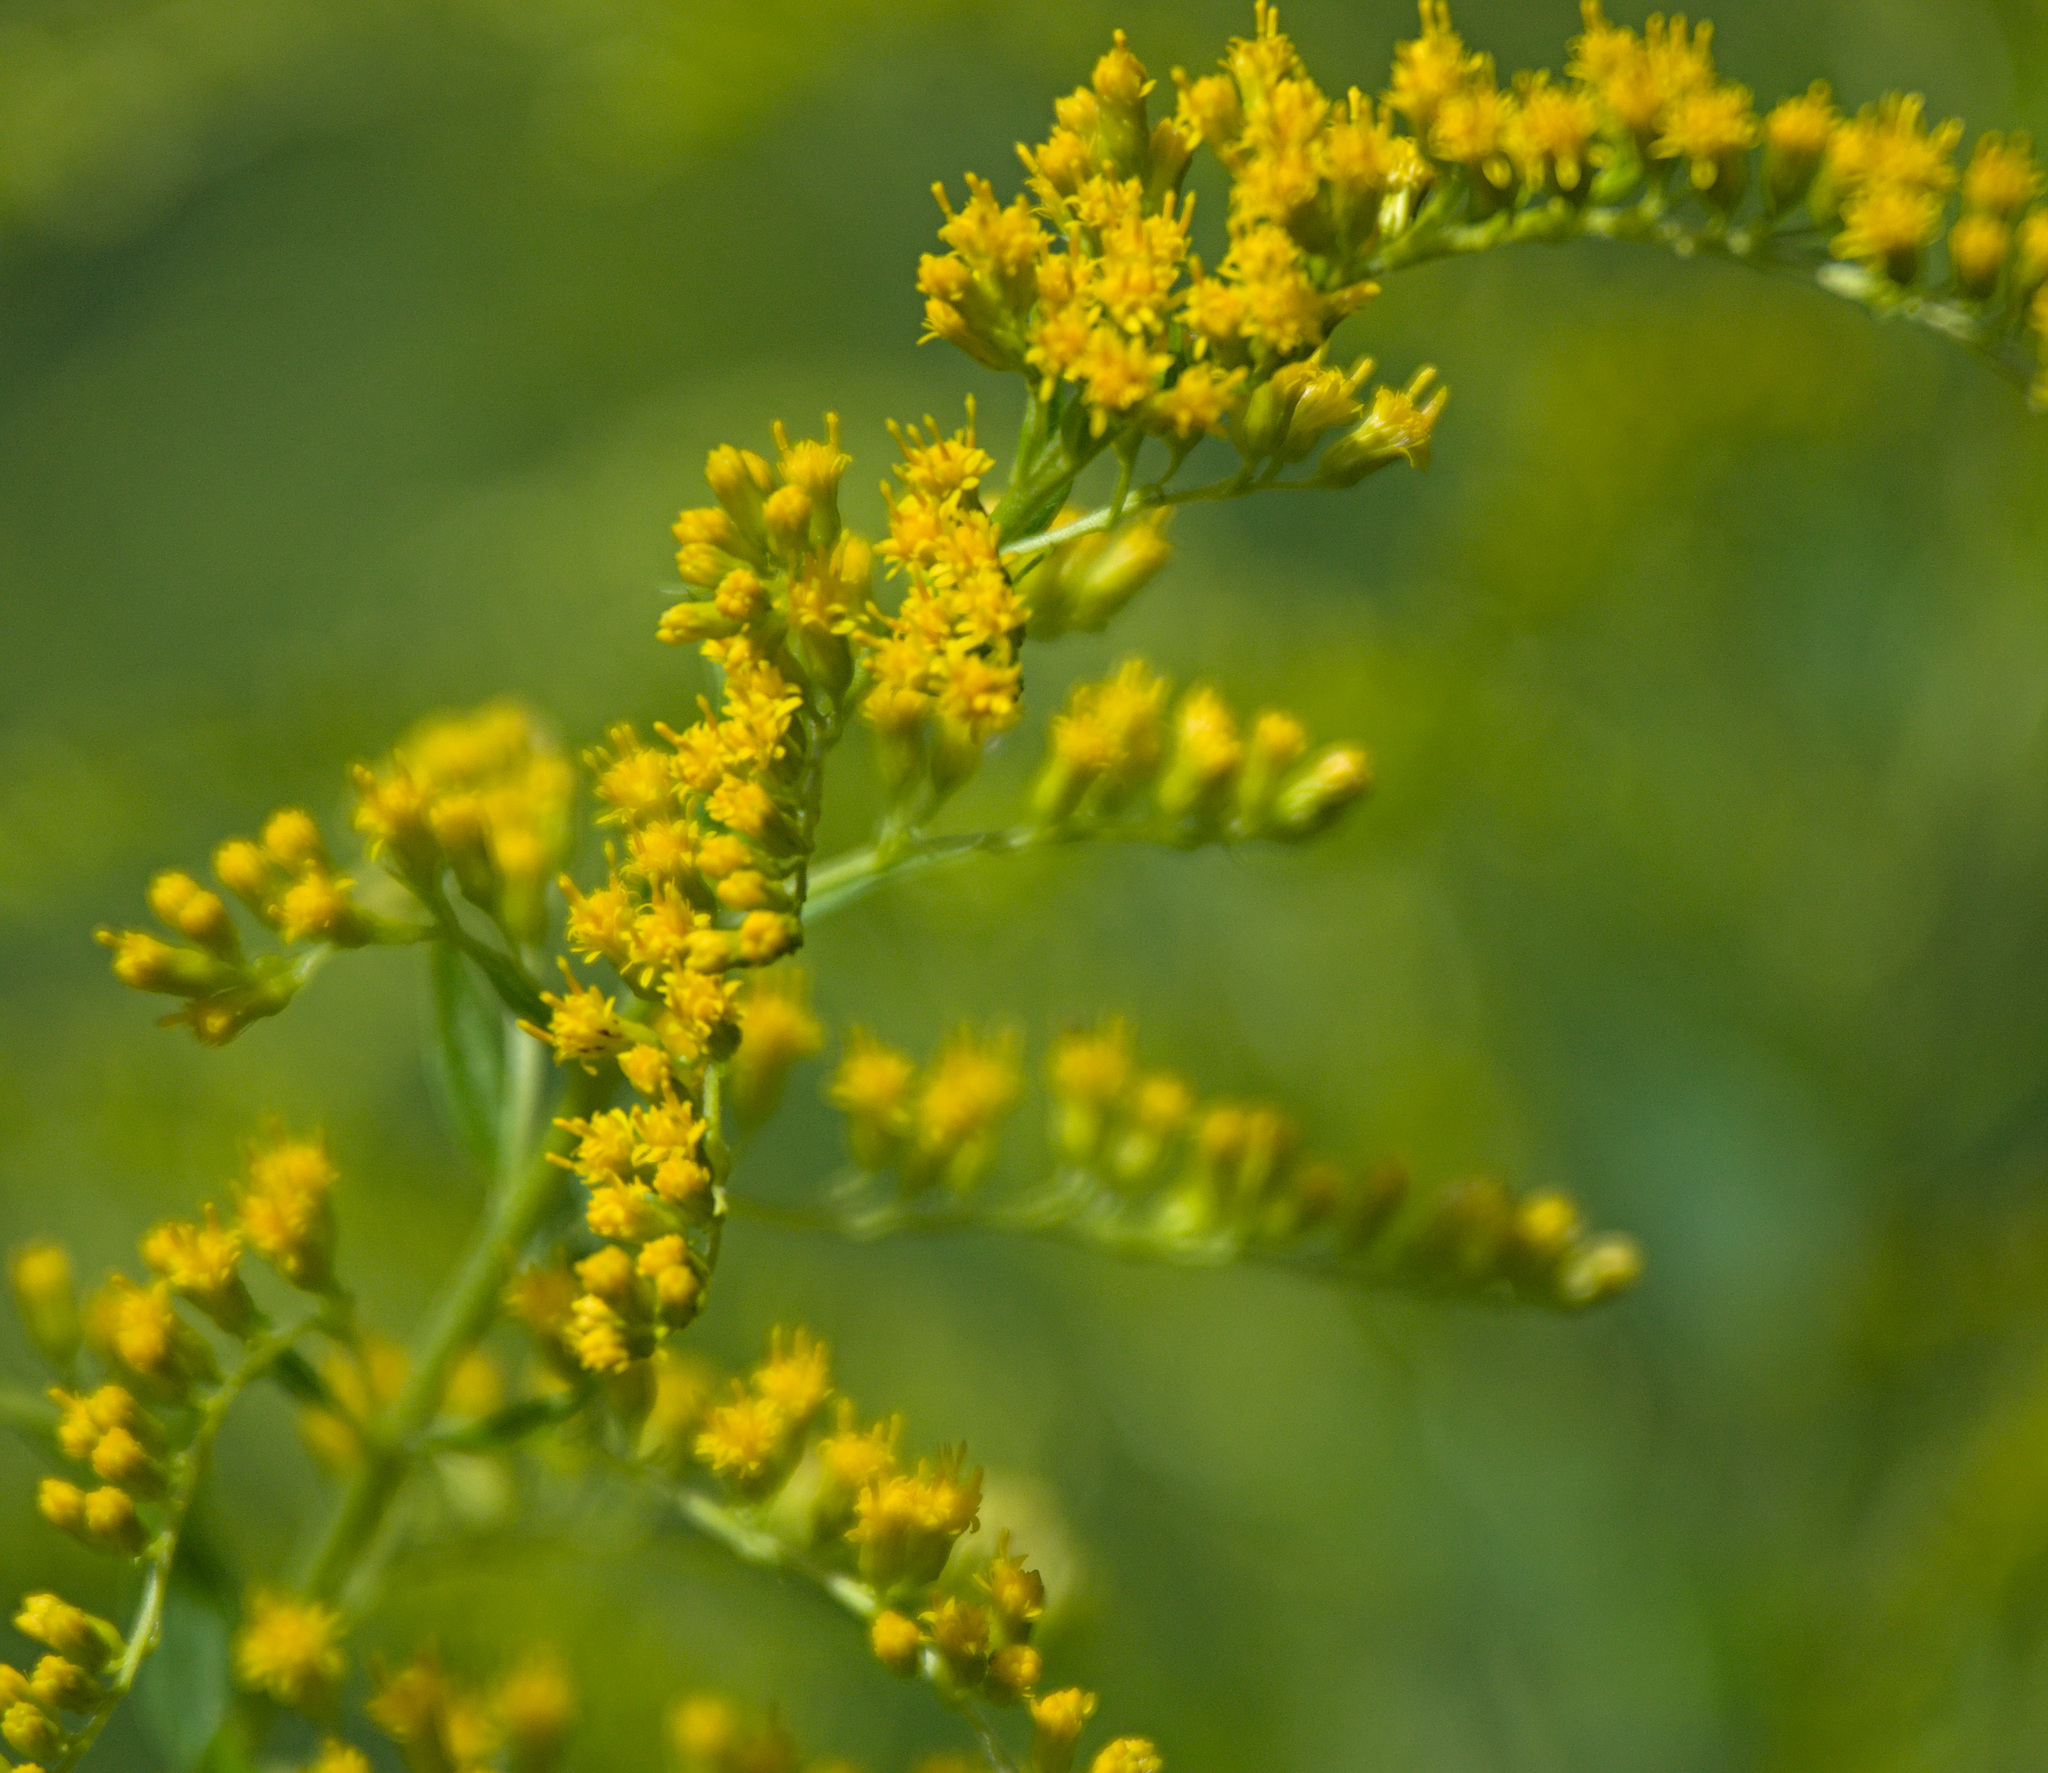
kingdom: Plantae
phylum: Tracheophyta
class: Magnoliopsida
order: Asterales
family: Asteraceae
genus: Solidago
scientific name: Solidago canadensis
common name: Canada goldenrod
